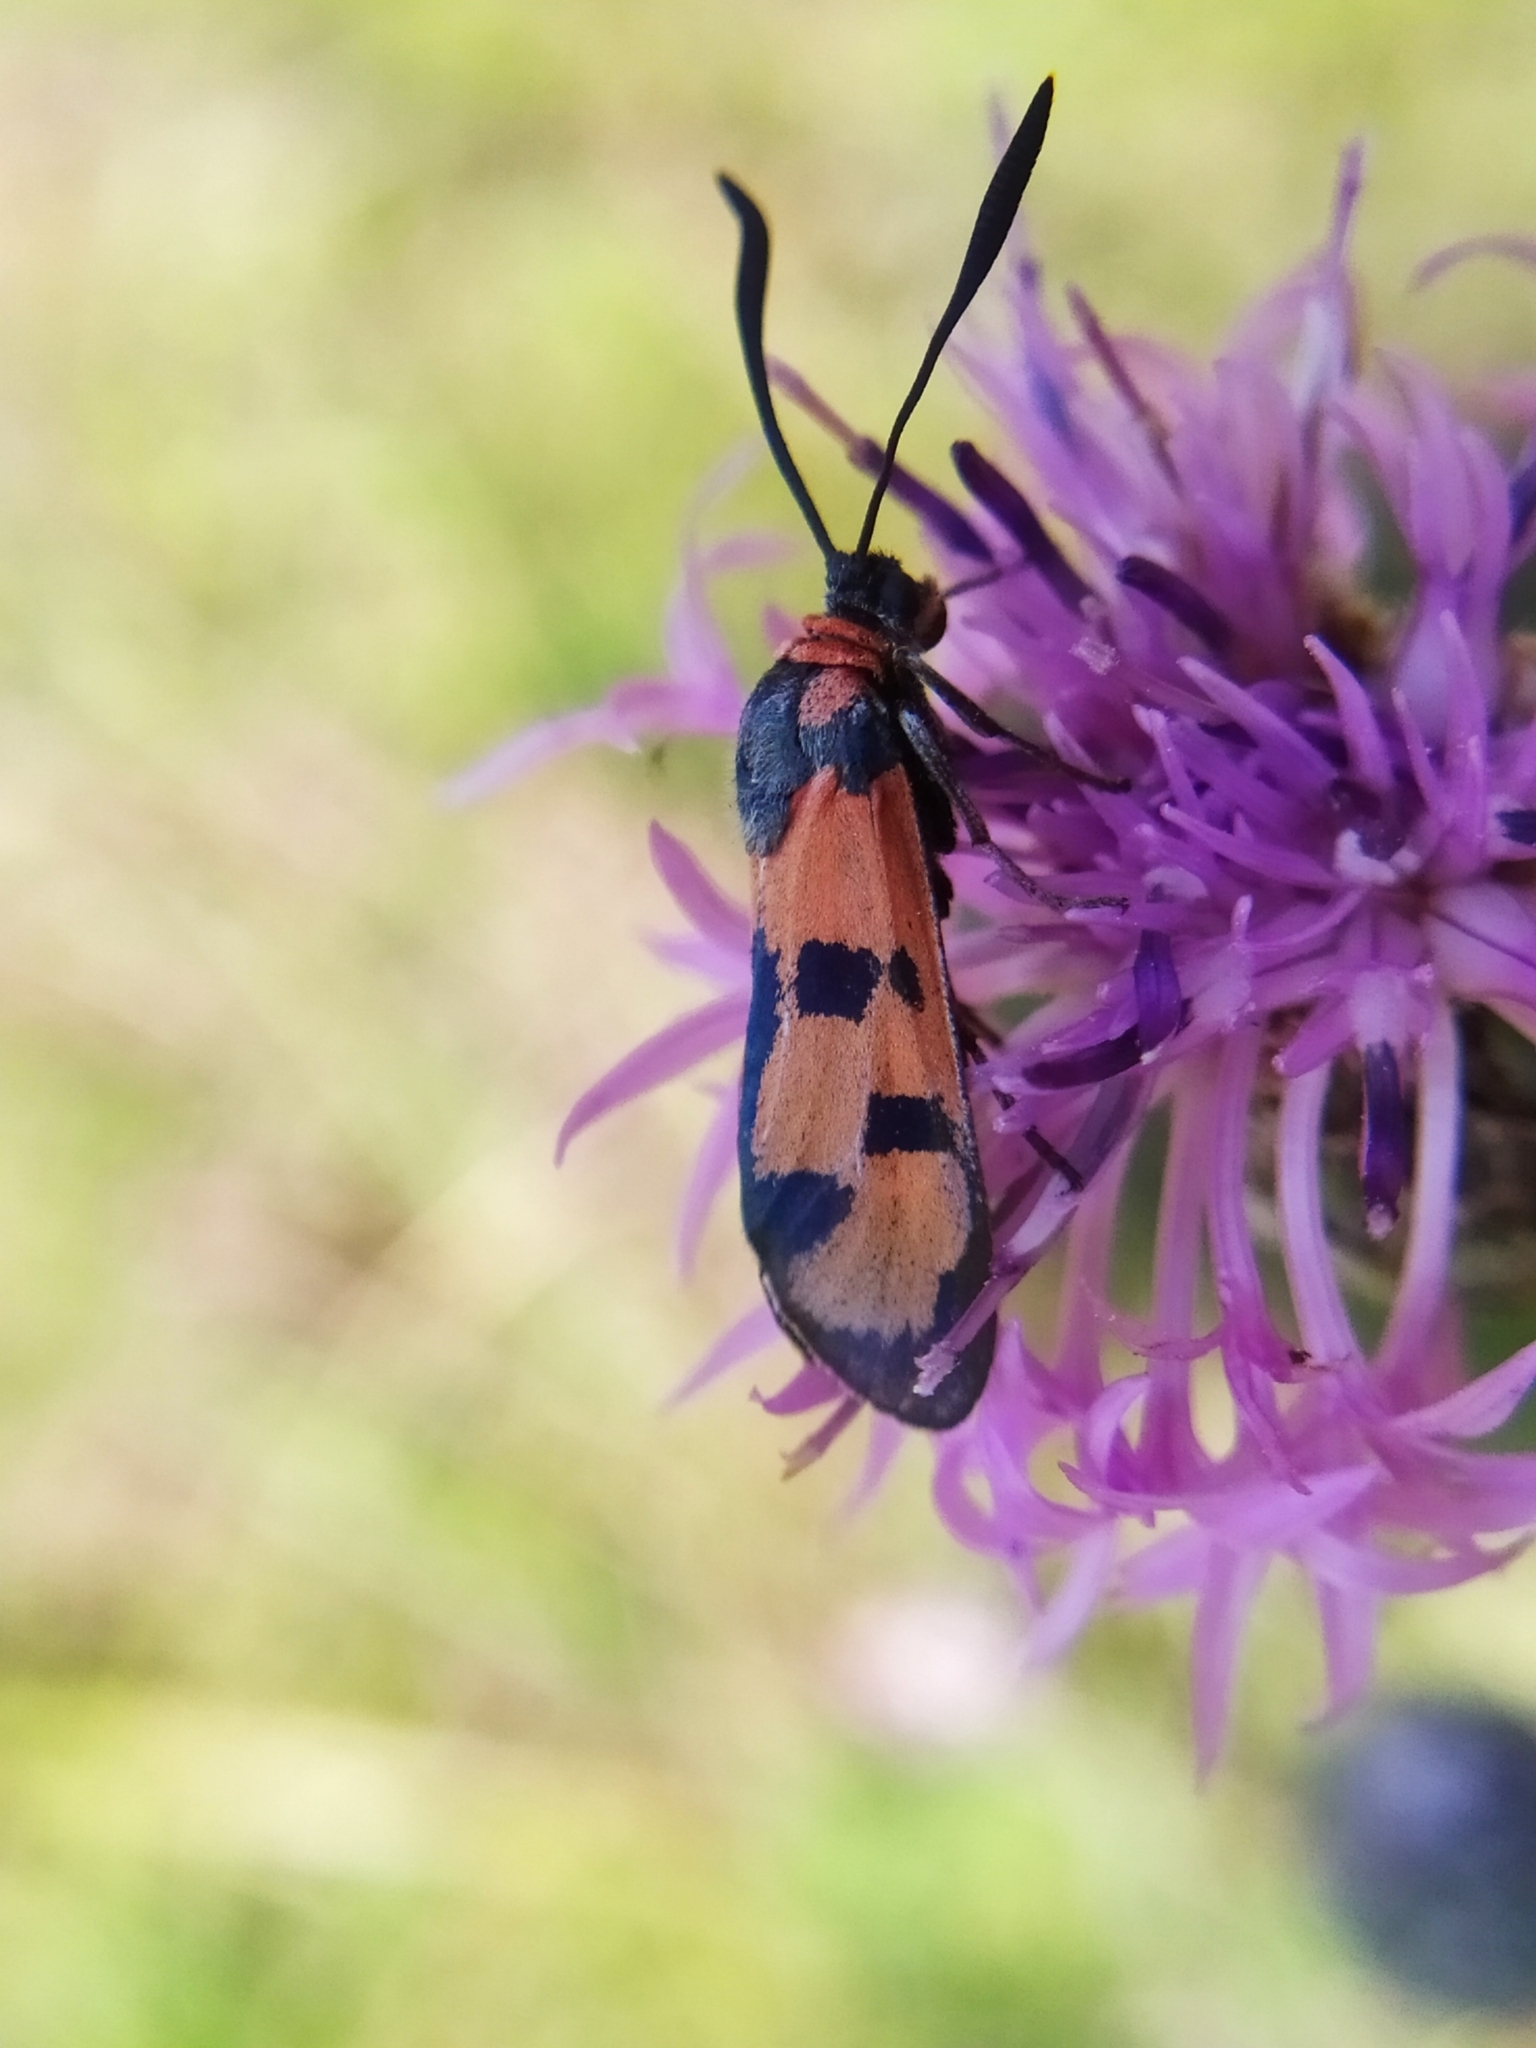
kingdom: Animalia
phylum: Arthropoda
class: Insecta
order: Lepidoptera
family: Zygaenidae
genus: Zygaena
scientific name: Zygaena laeta
